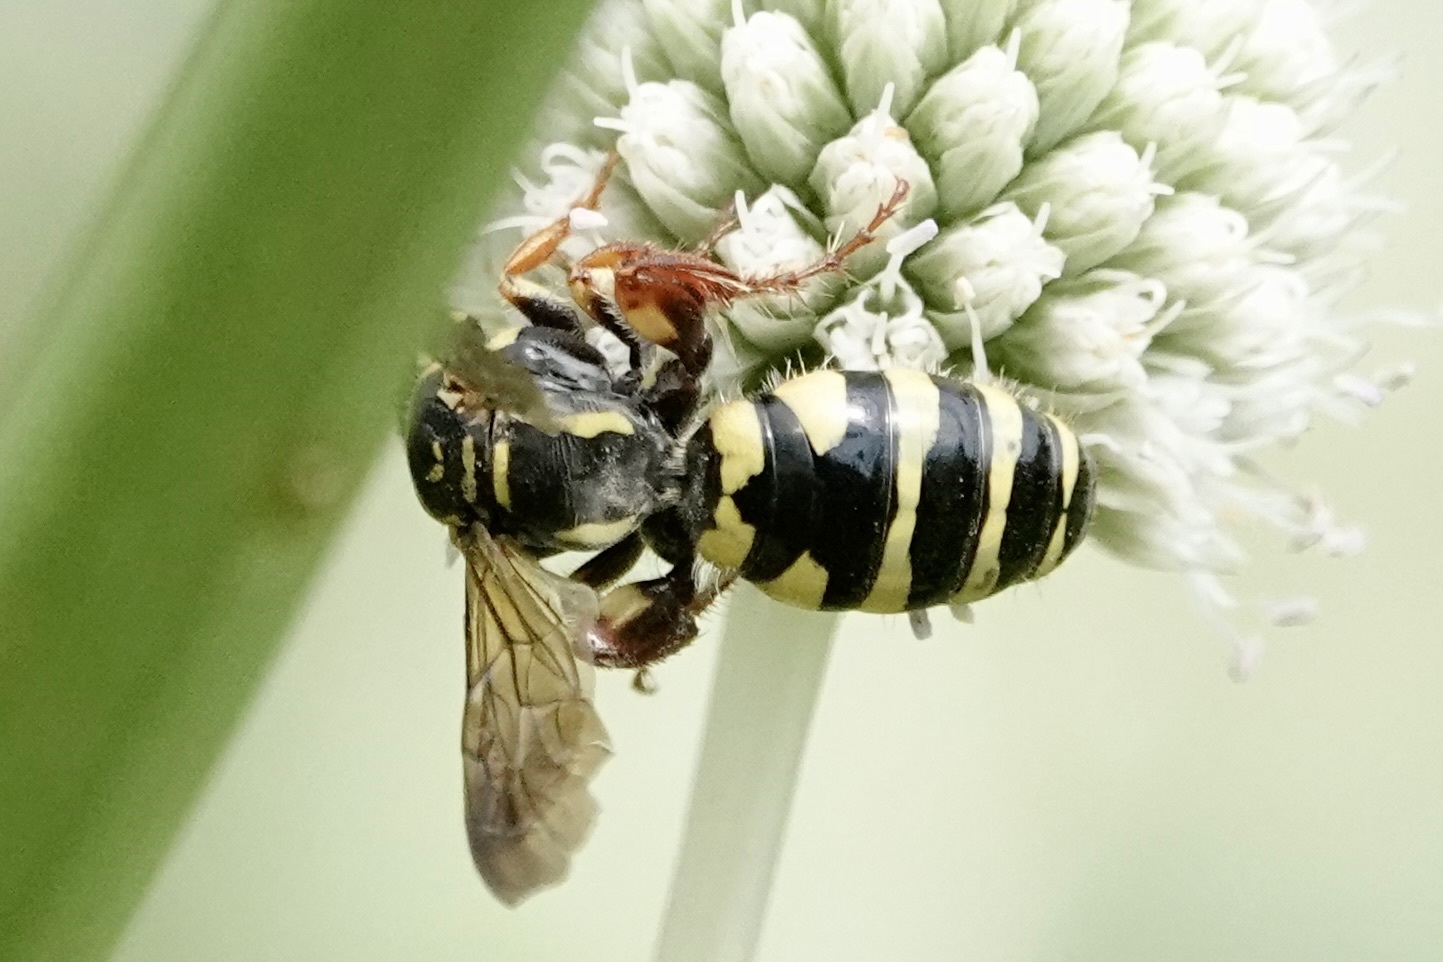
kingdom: Animalia
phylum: Arthropoda
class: Insecta
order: Hymenoptera
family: Tiphiidae
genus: Myzinum
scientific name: Myzinum quinquecinctum
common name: Five-banded thynnid wasp
